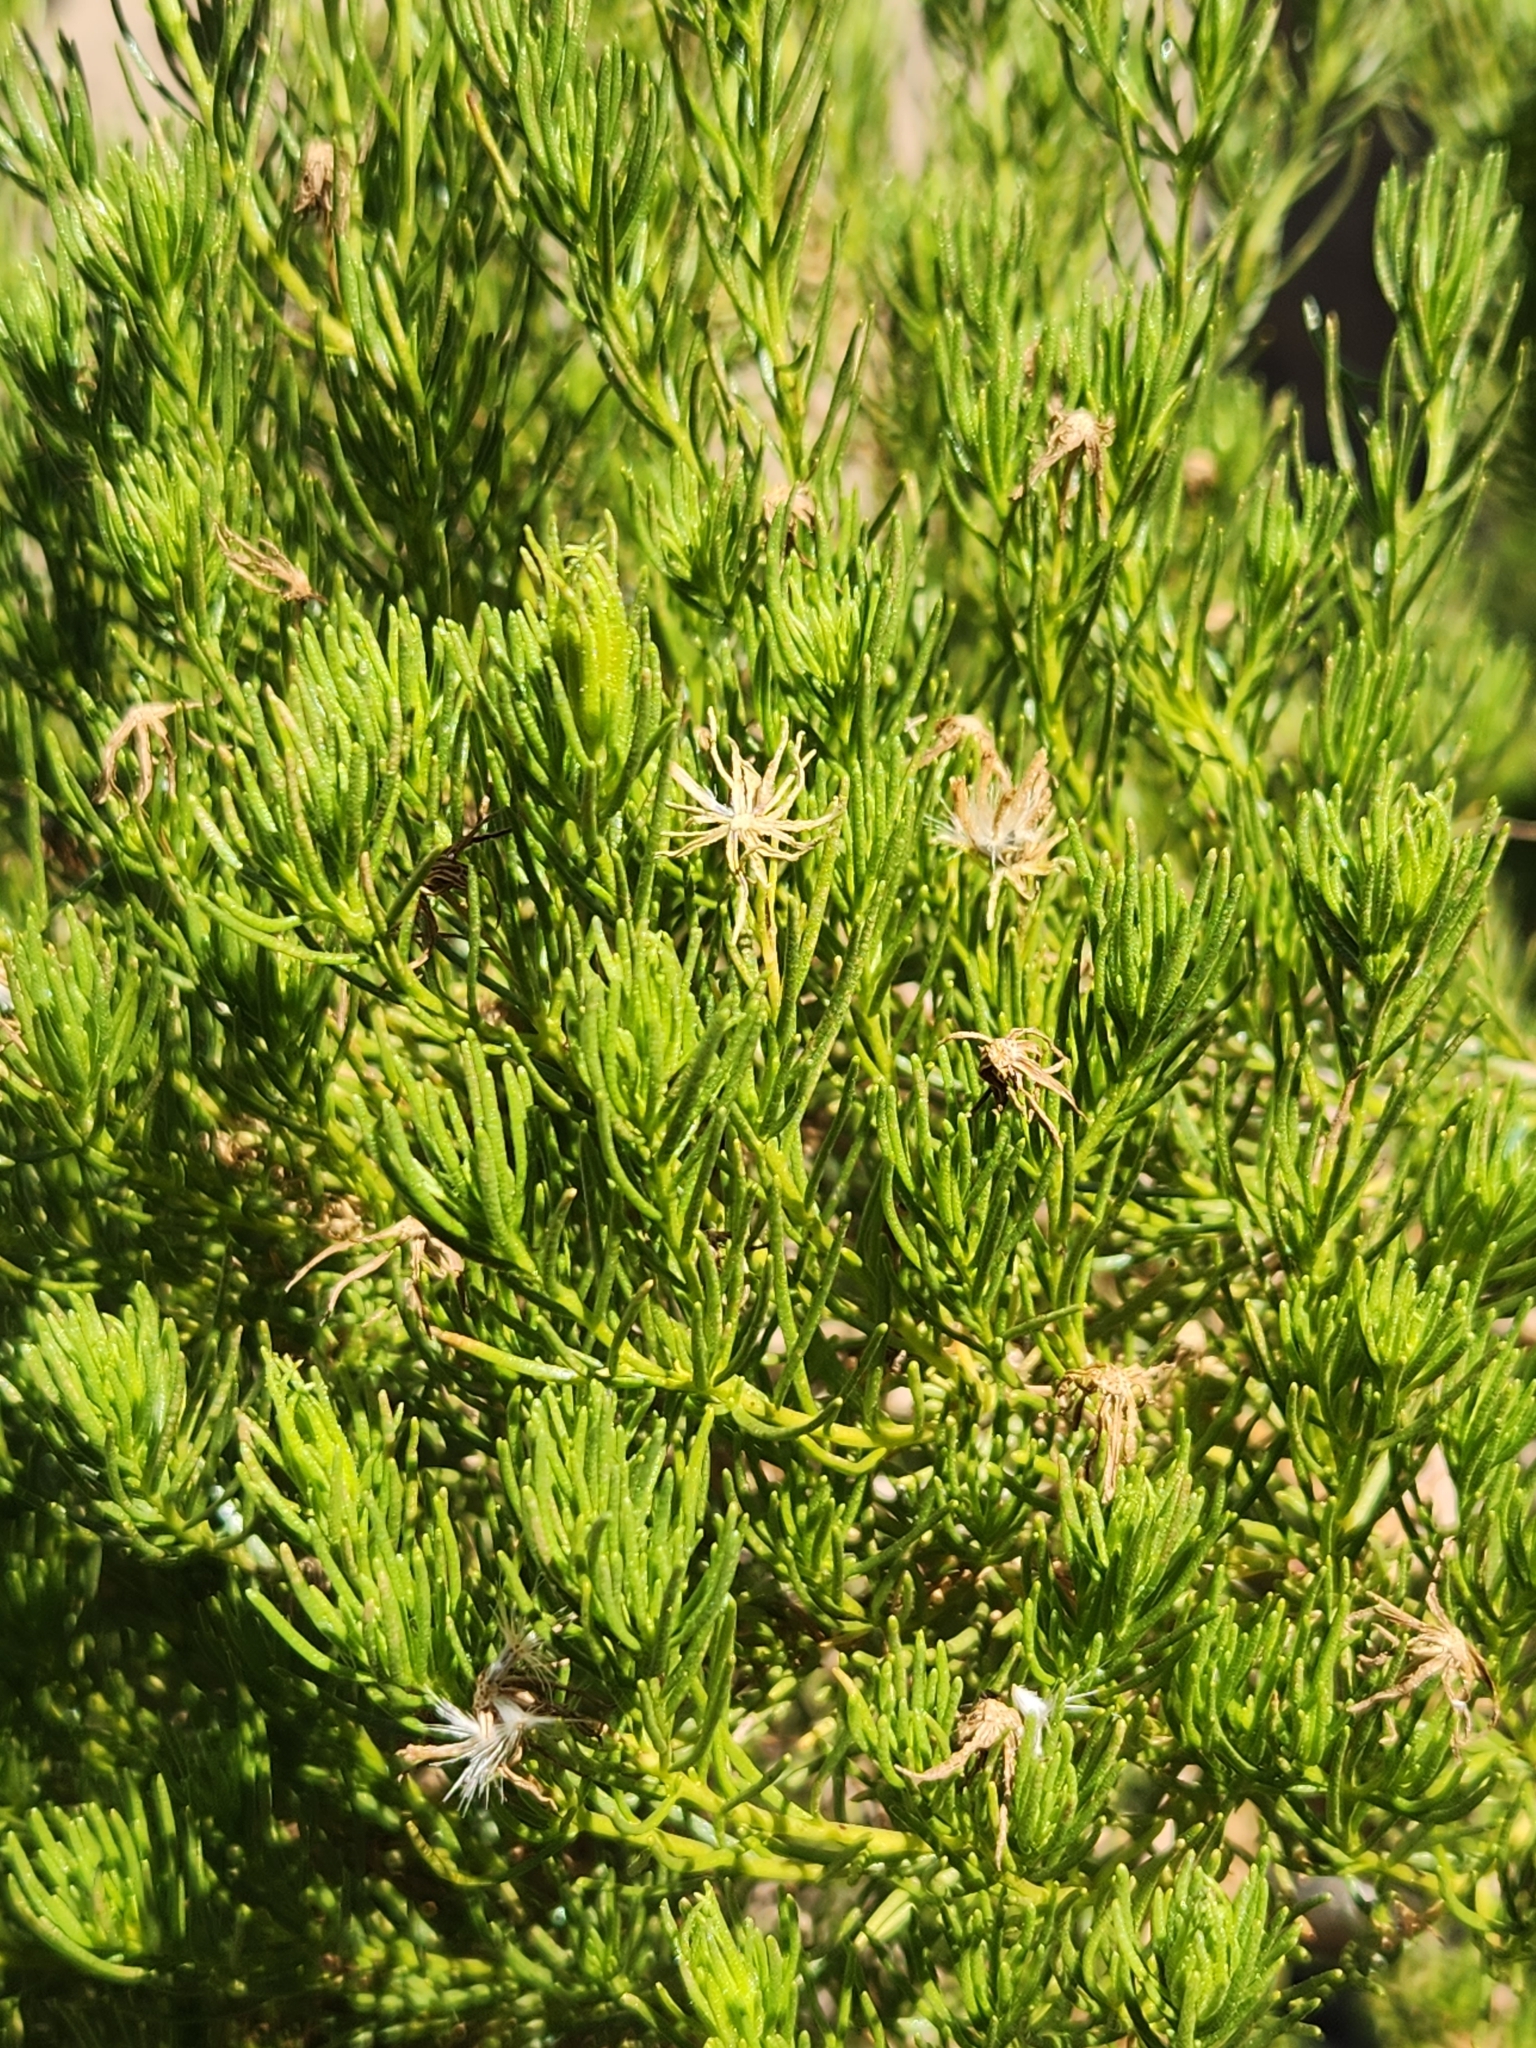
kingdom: Plantae
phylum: Tracheophyta
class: Magnoliopsida
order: Asterales
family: Asteraceae
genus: Peucephyllum
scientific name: Peucephyllum schottii
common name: Pygmy-cedar
